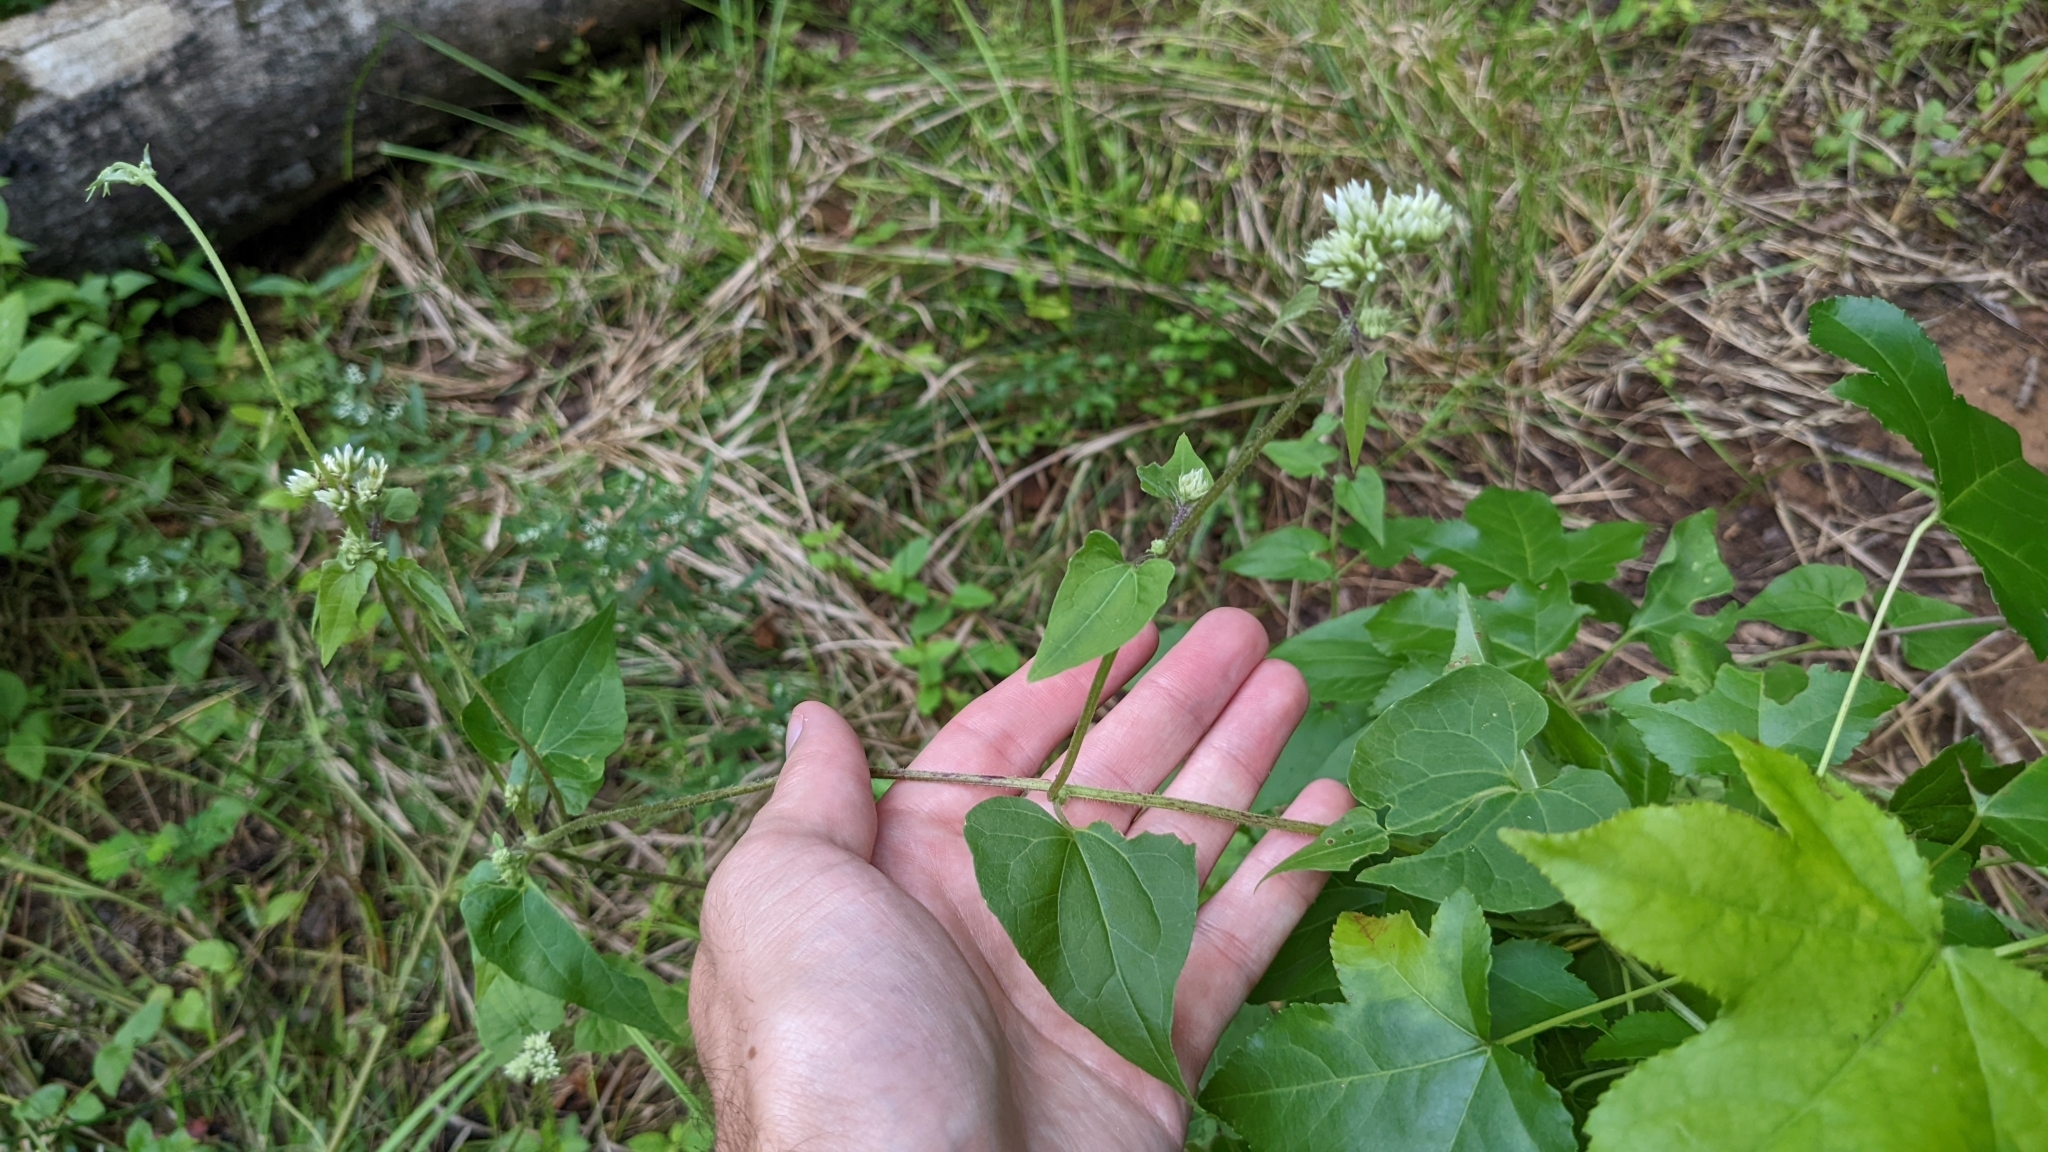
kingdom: Plantae
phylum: Tracheophyta
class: Magnoliopsida
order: Asterales
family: Asteraceae
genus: Mikania
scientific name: Mikania scandens
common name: Climbing hempvine
